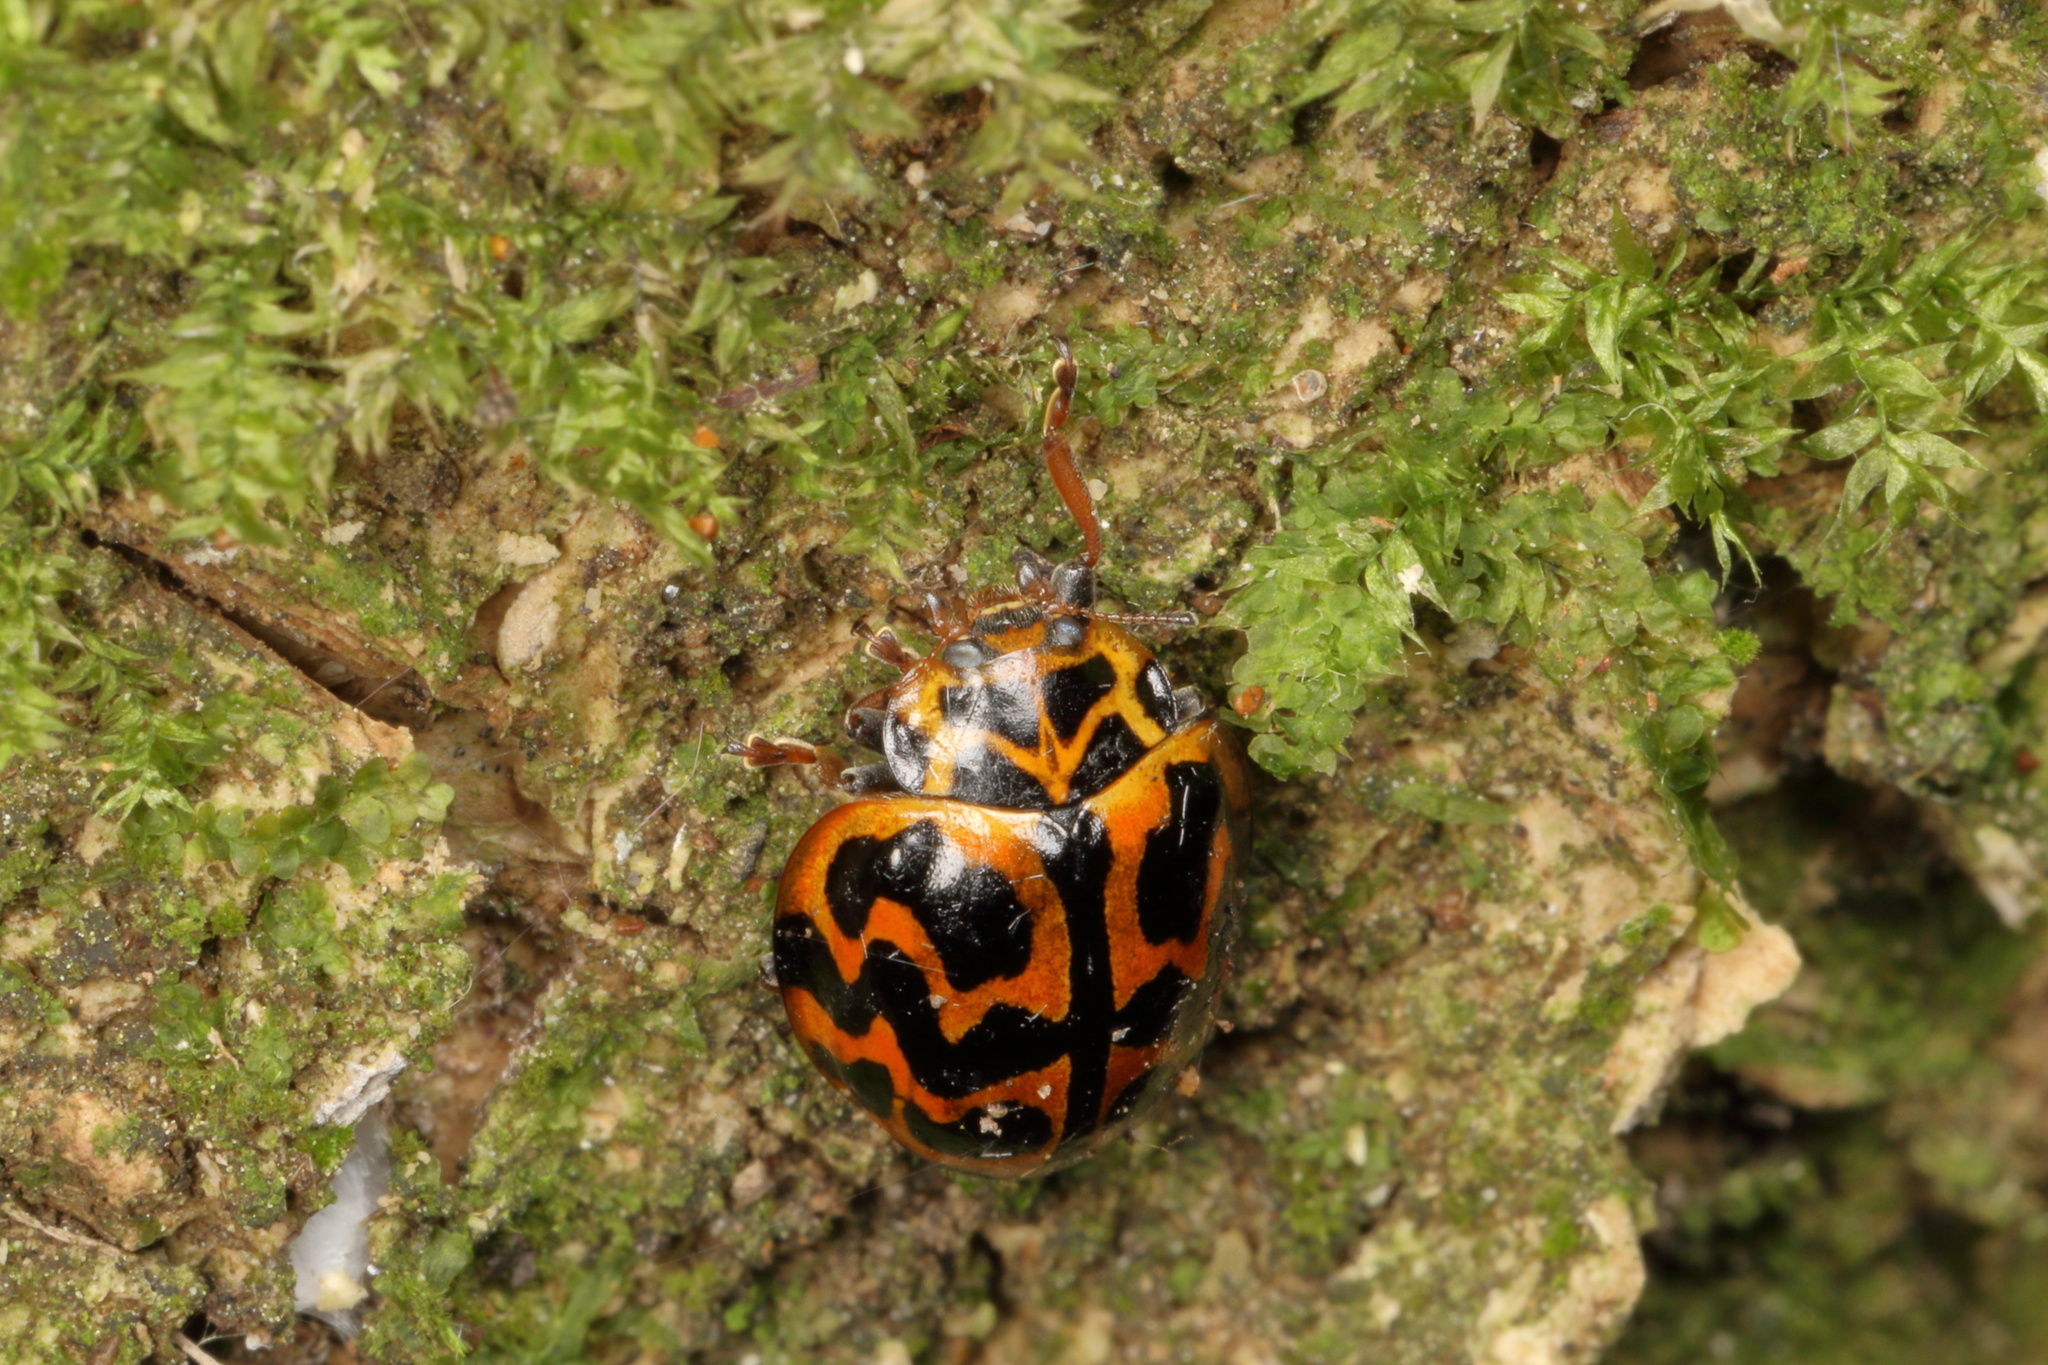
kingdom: Animalia
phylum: Arthropoda
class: Insecta
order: Coleoptera
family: Coccinellidae
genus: Cleobora
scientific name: Cleobora
